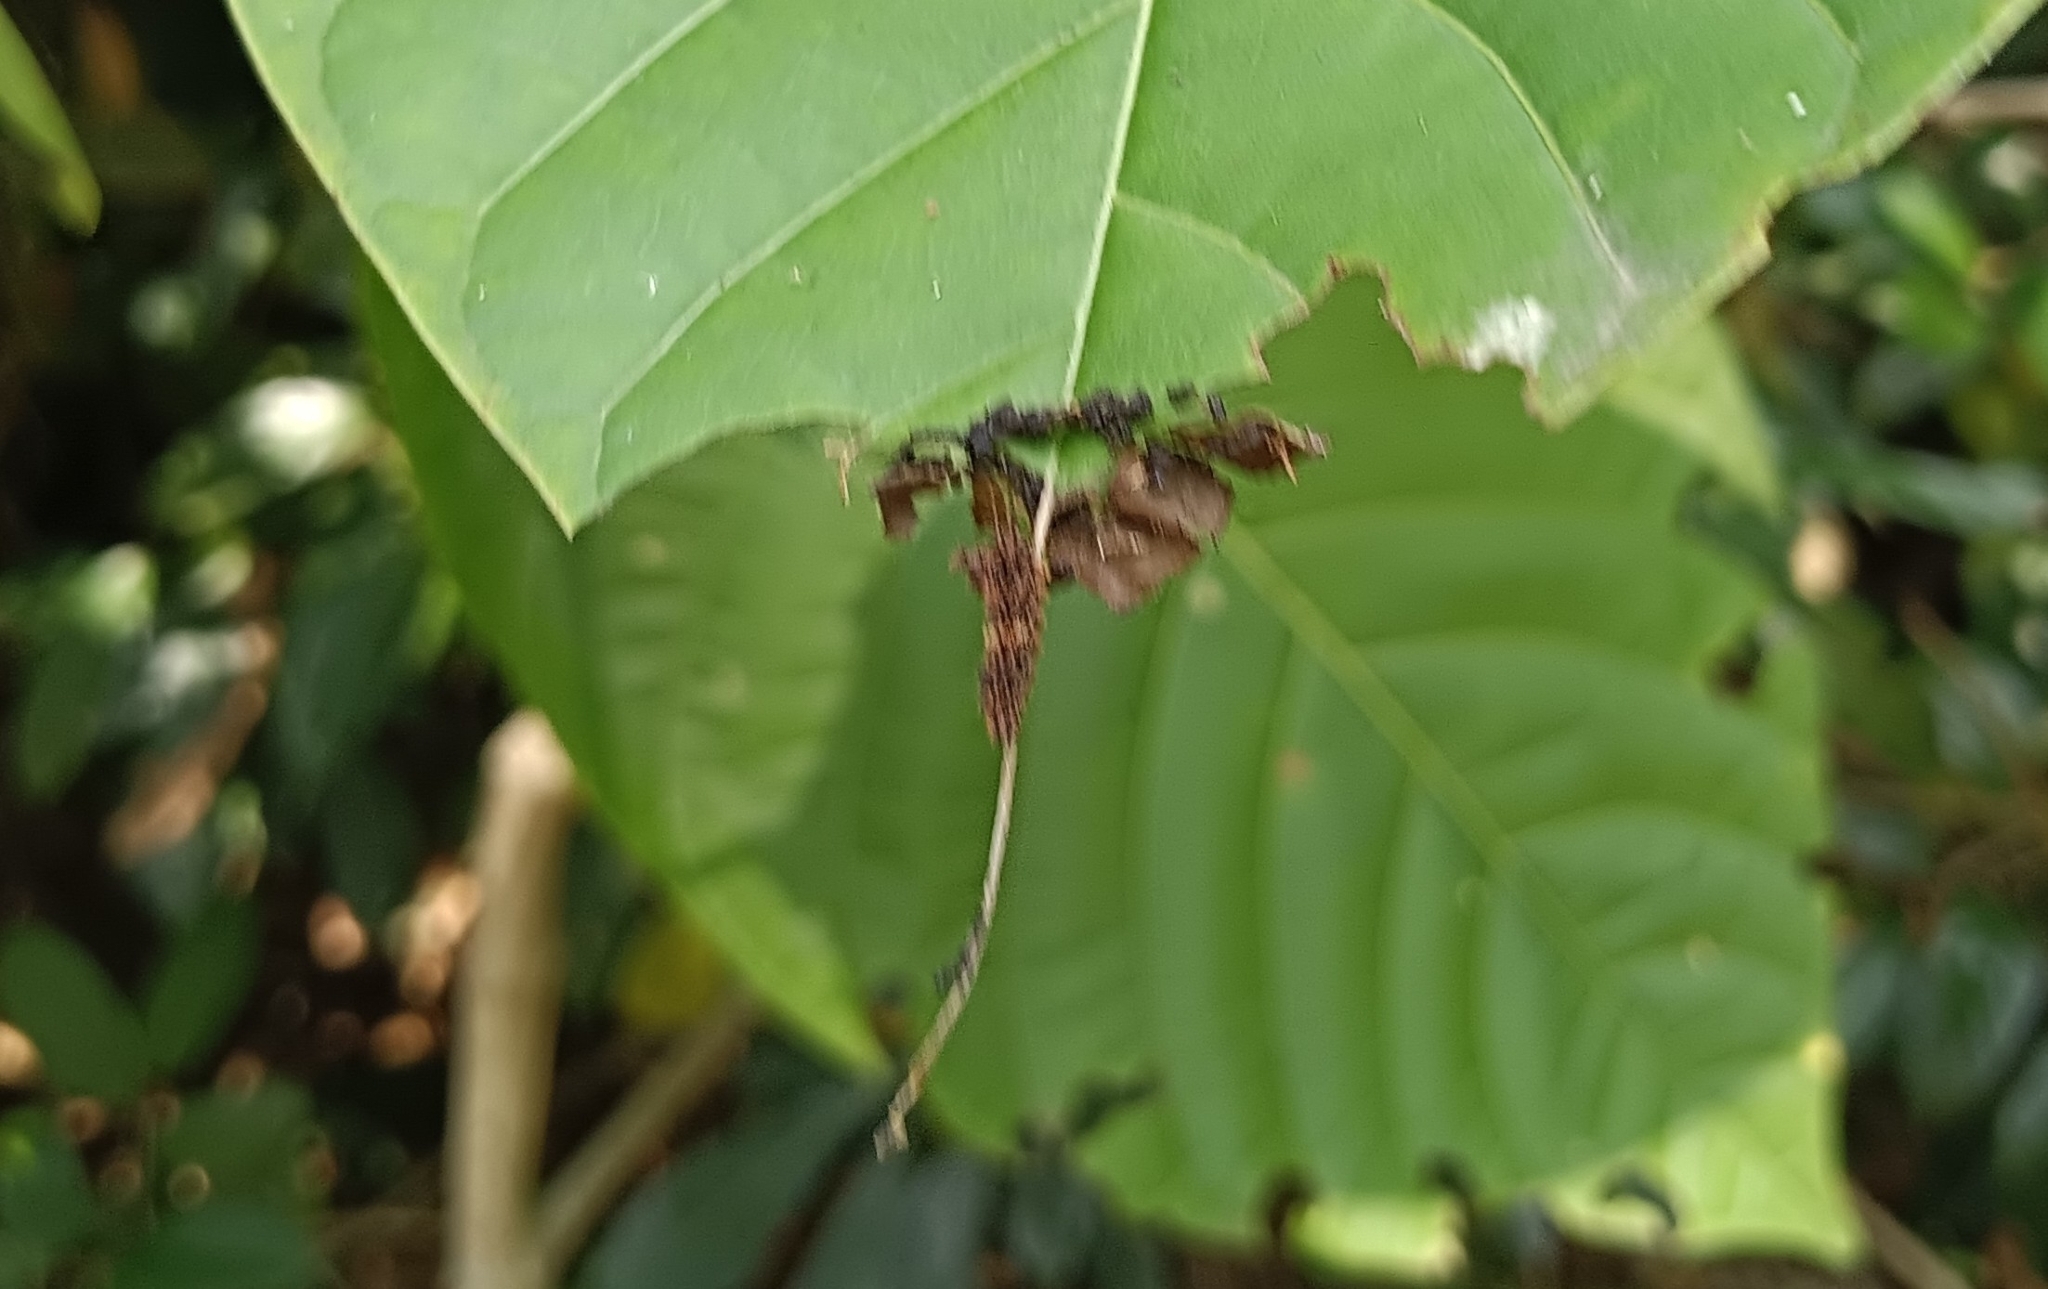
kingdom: Animalia
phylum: Arthropoda
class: Insecta
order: Lepidoptera
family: Nymphalidae
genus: Limenitis
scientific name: Limenitis Moduza procris
